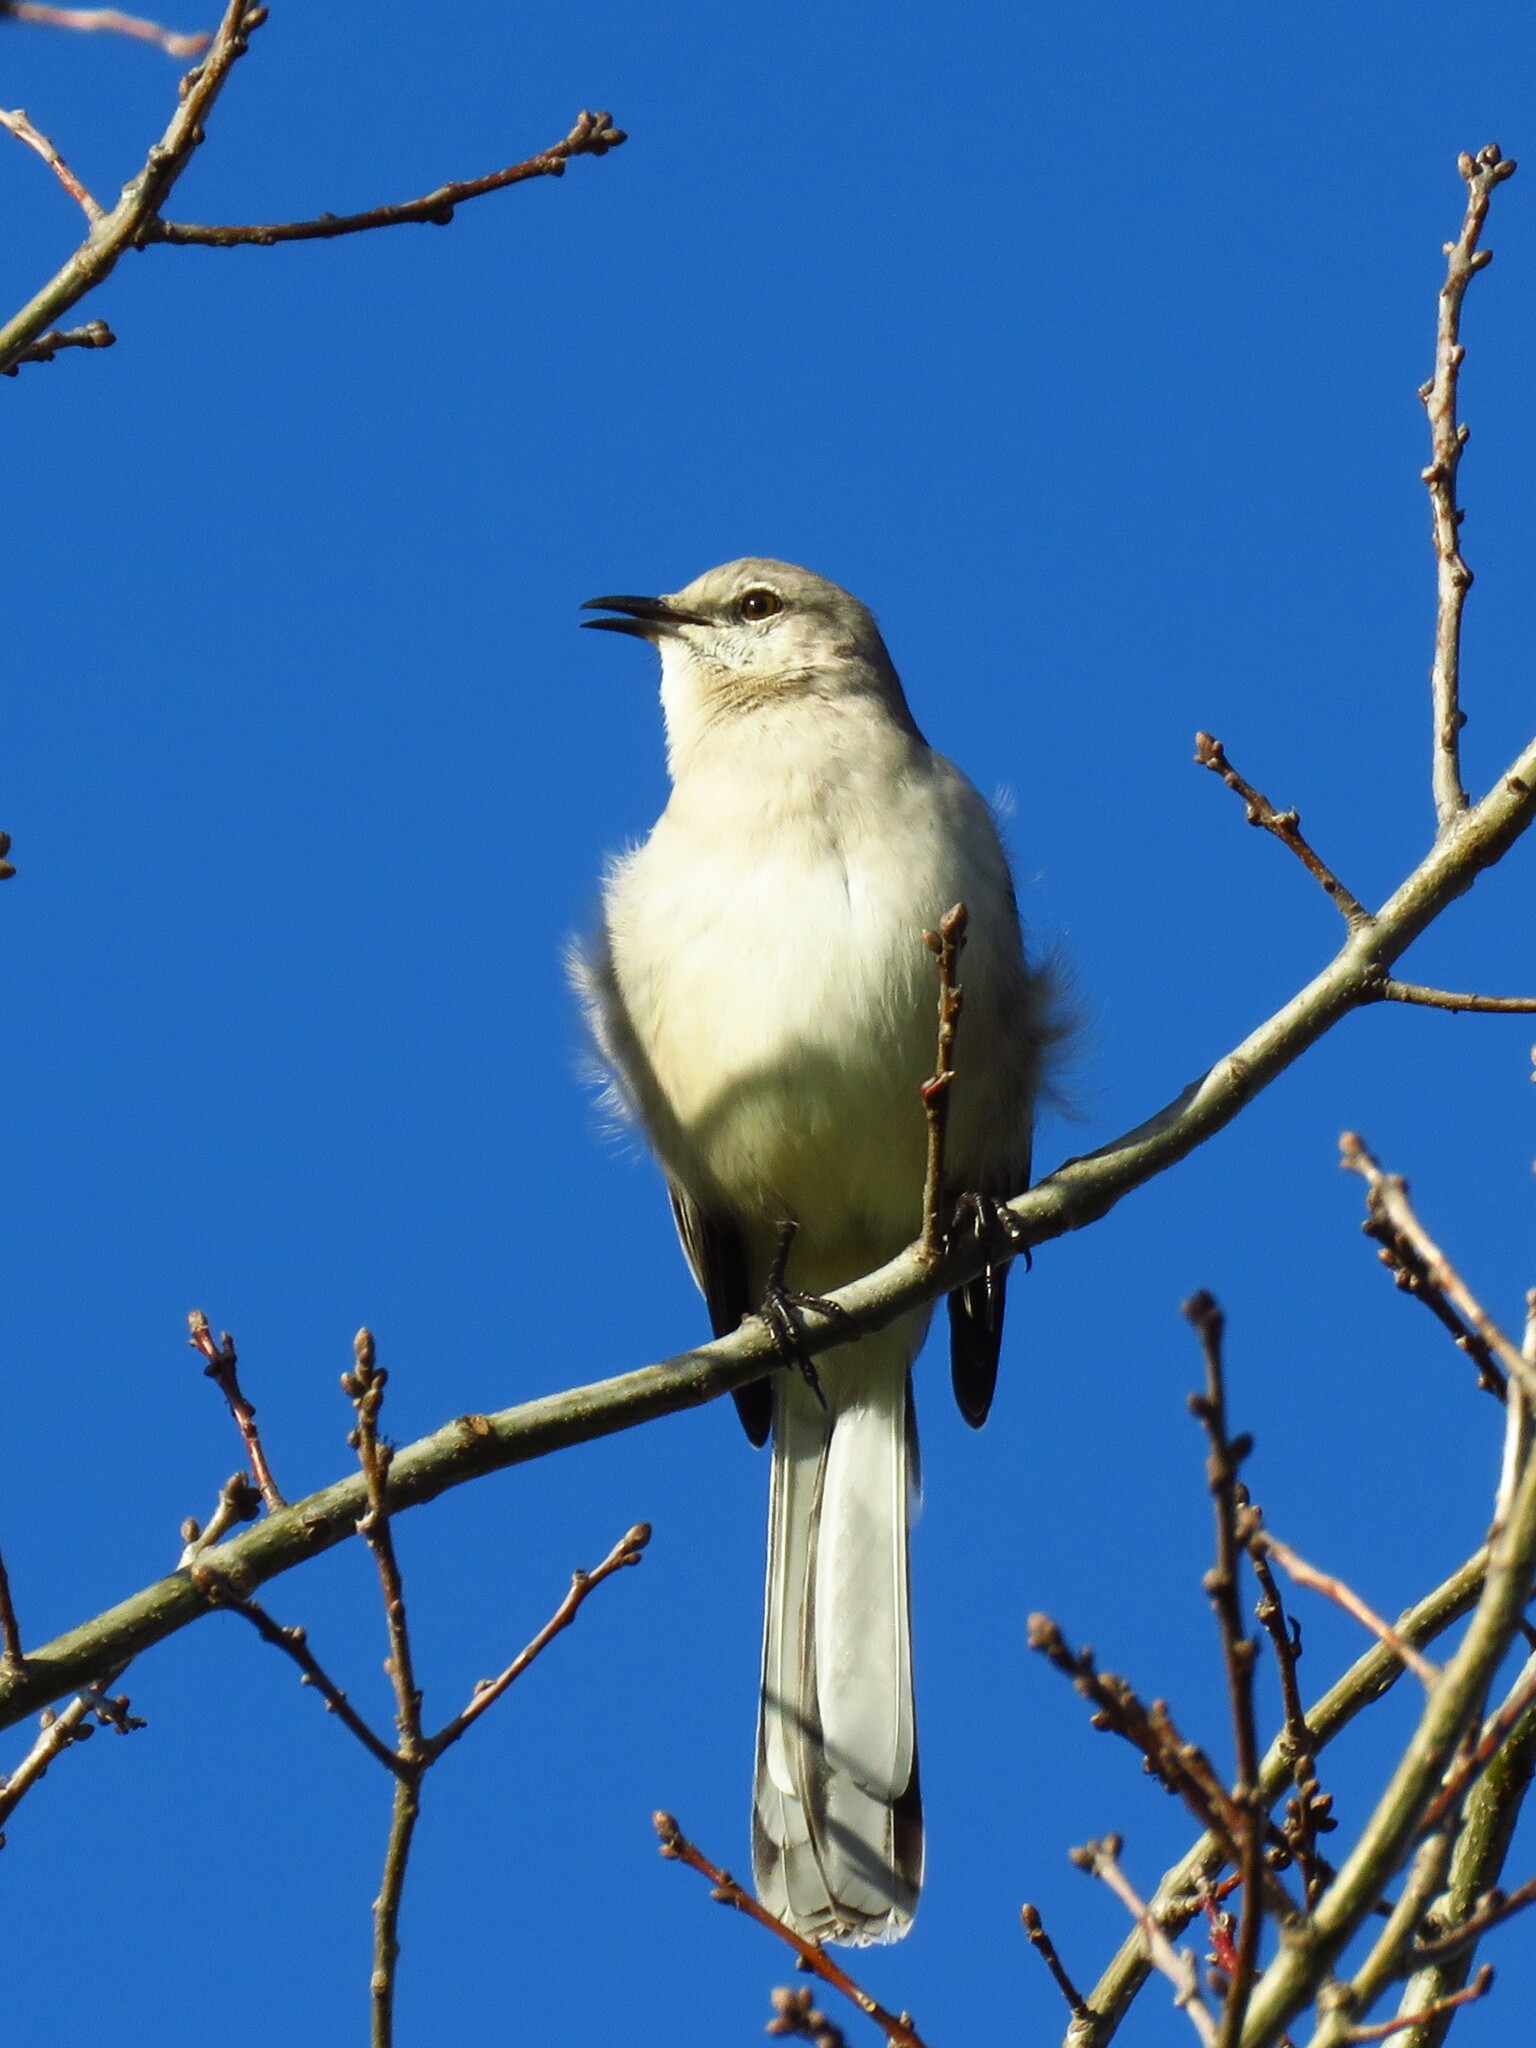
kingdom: Animalia
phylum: Chordata
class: Aves
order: Passeriformes
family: Mimidae
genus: Mimus
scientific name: Mimus polyglottos
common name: Northern mockingbird
